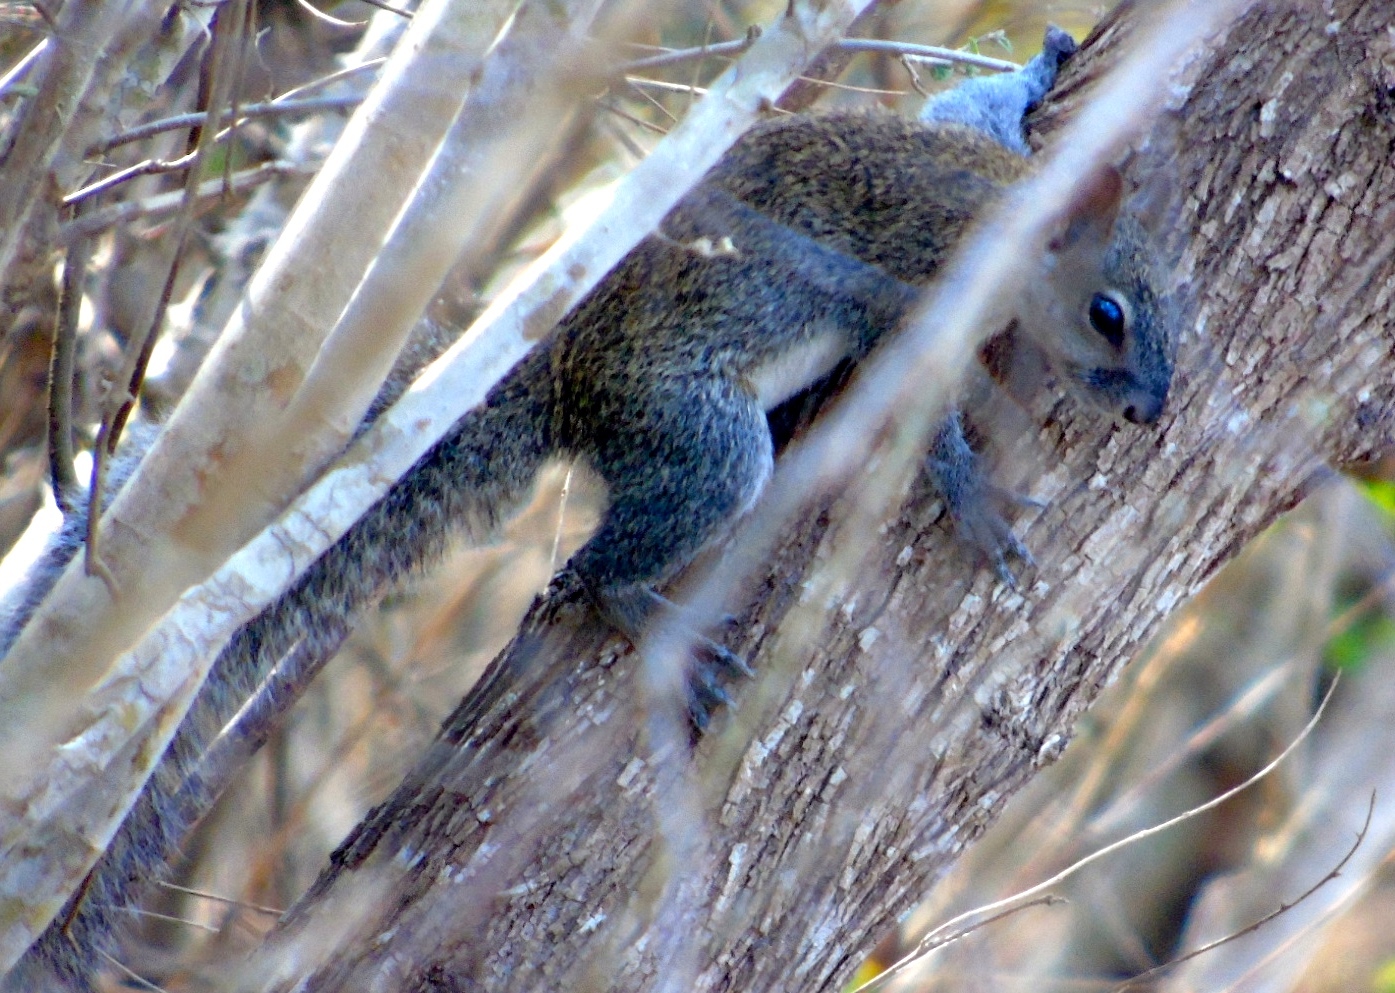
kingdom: Animalia
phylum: Chordata
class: Mammalia
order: Rodentia
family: Sciuridae
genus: Sciurus
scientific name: Sciurus colliaei
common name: Collie's squirrel
